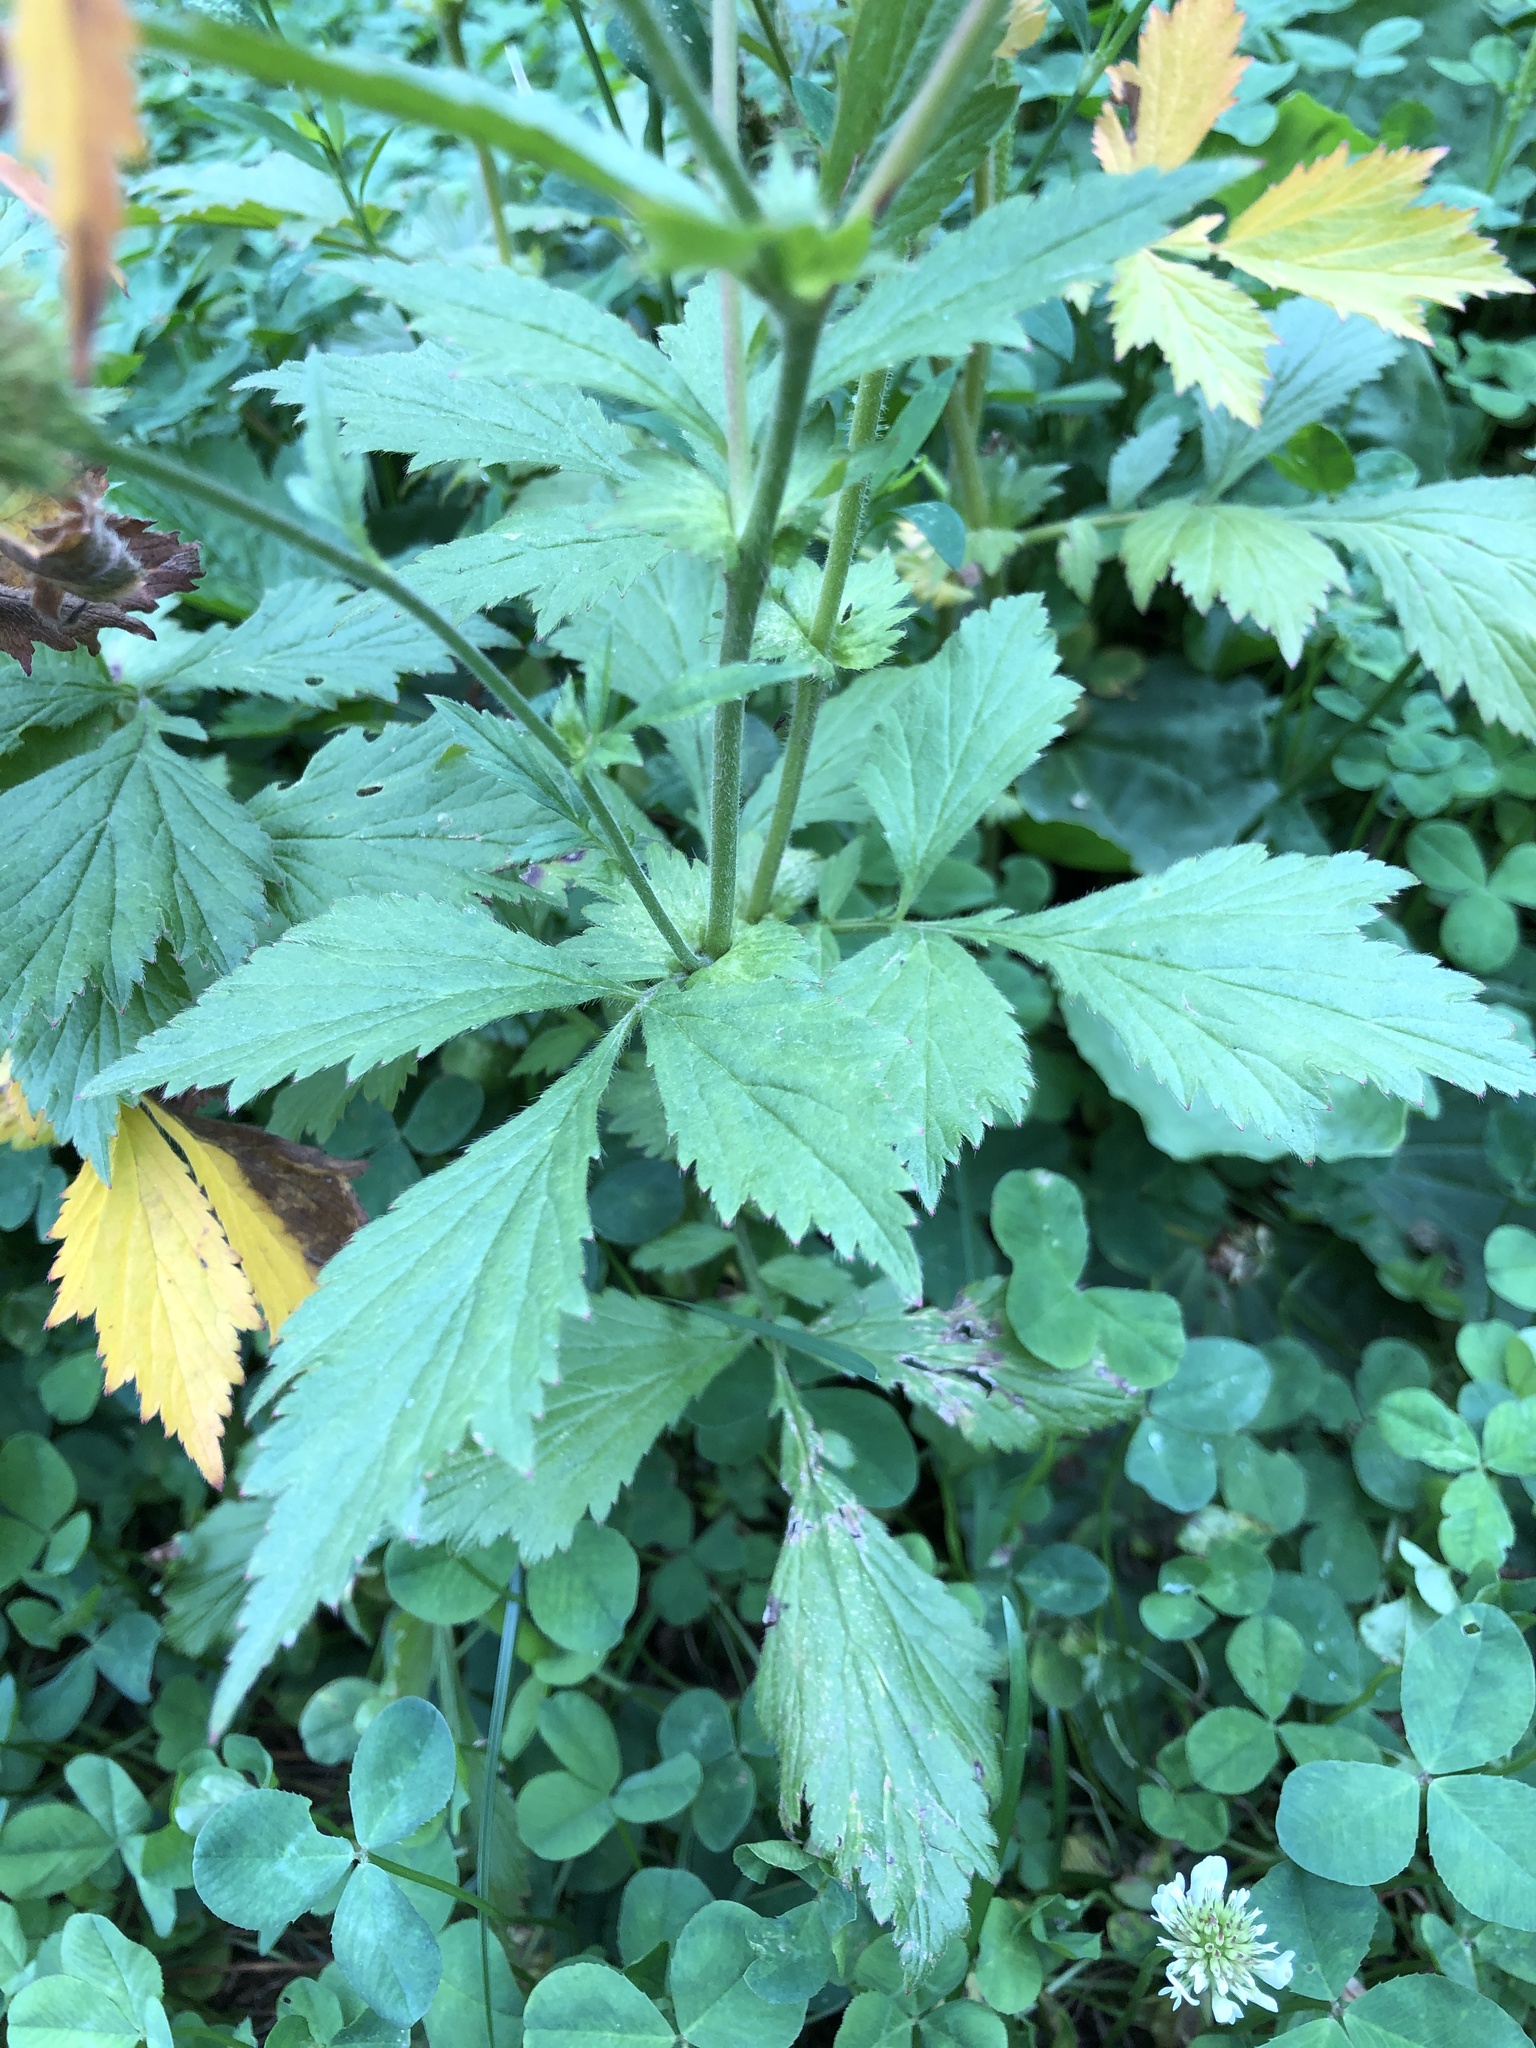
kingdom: Plantae
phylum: Tracheophyta
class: Magnoliopsida
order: Rosales
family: Rosaceae
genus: Geum
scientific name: Geum aleppicum
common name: Yellow avens
